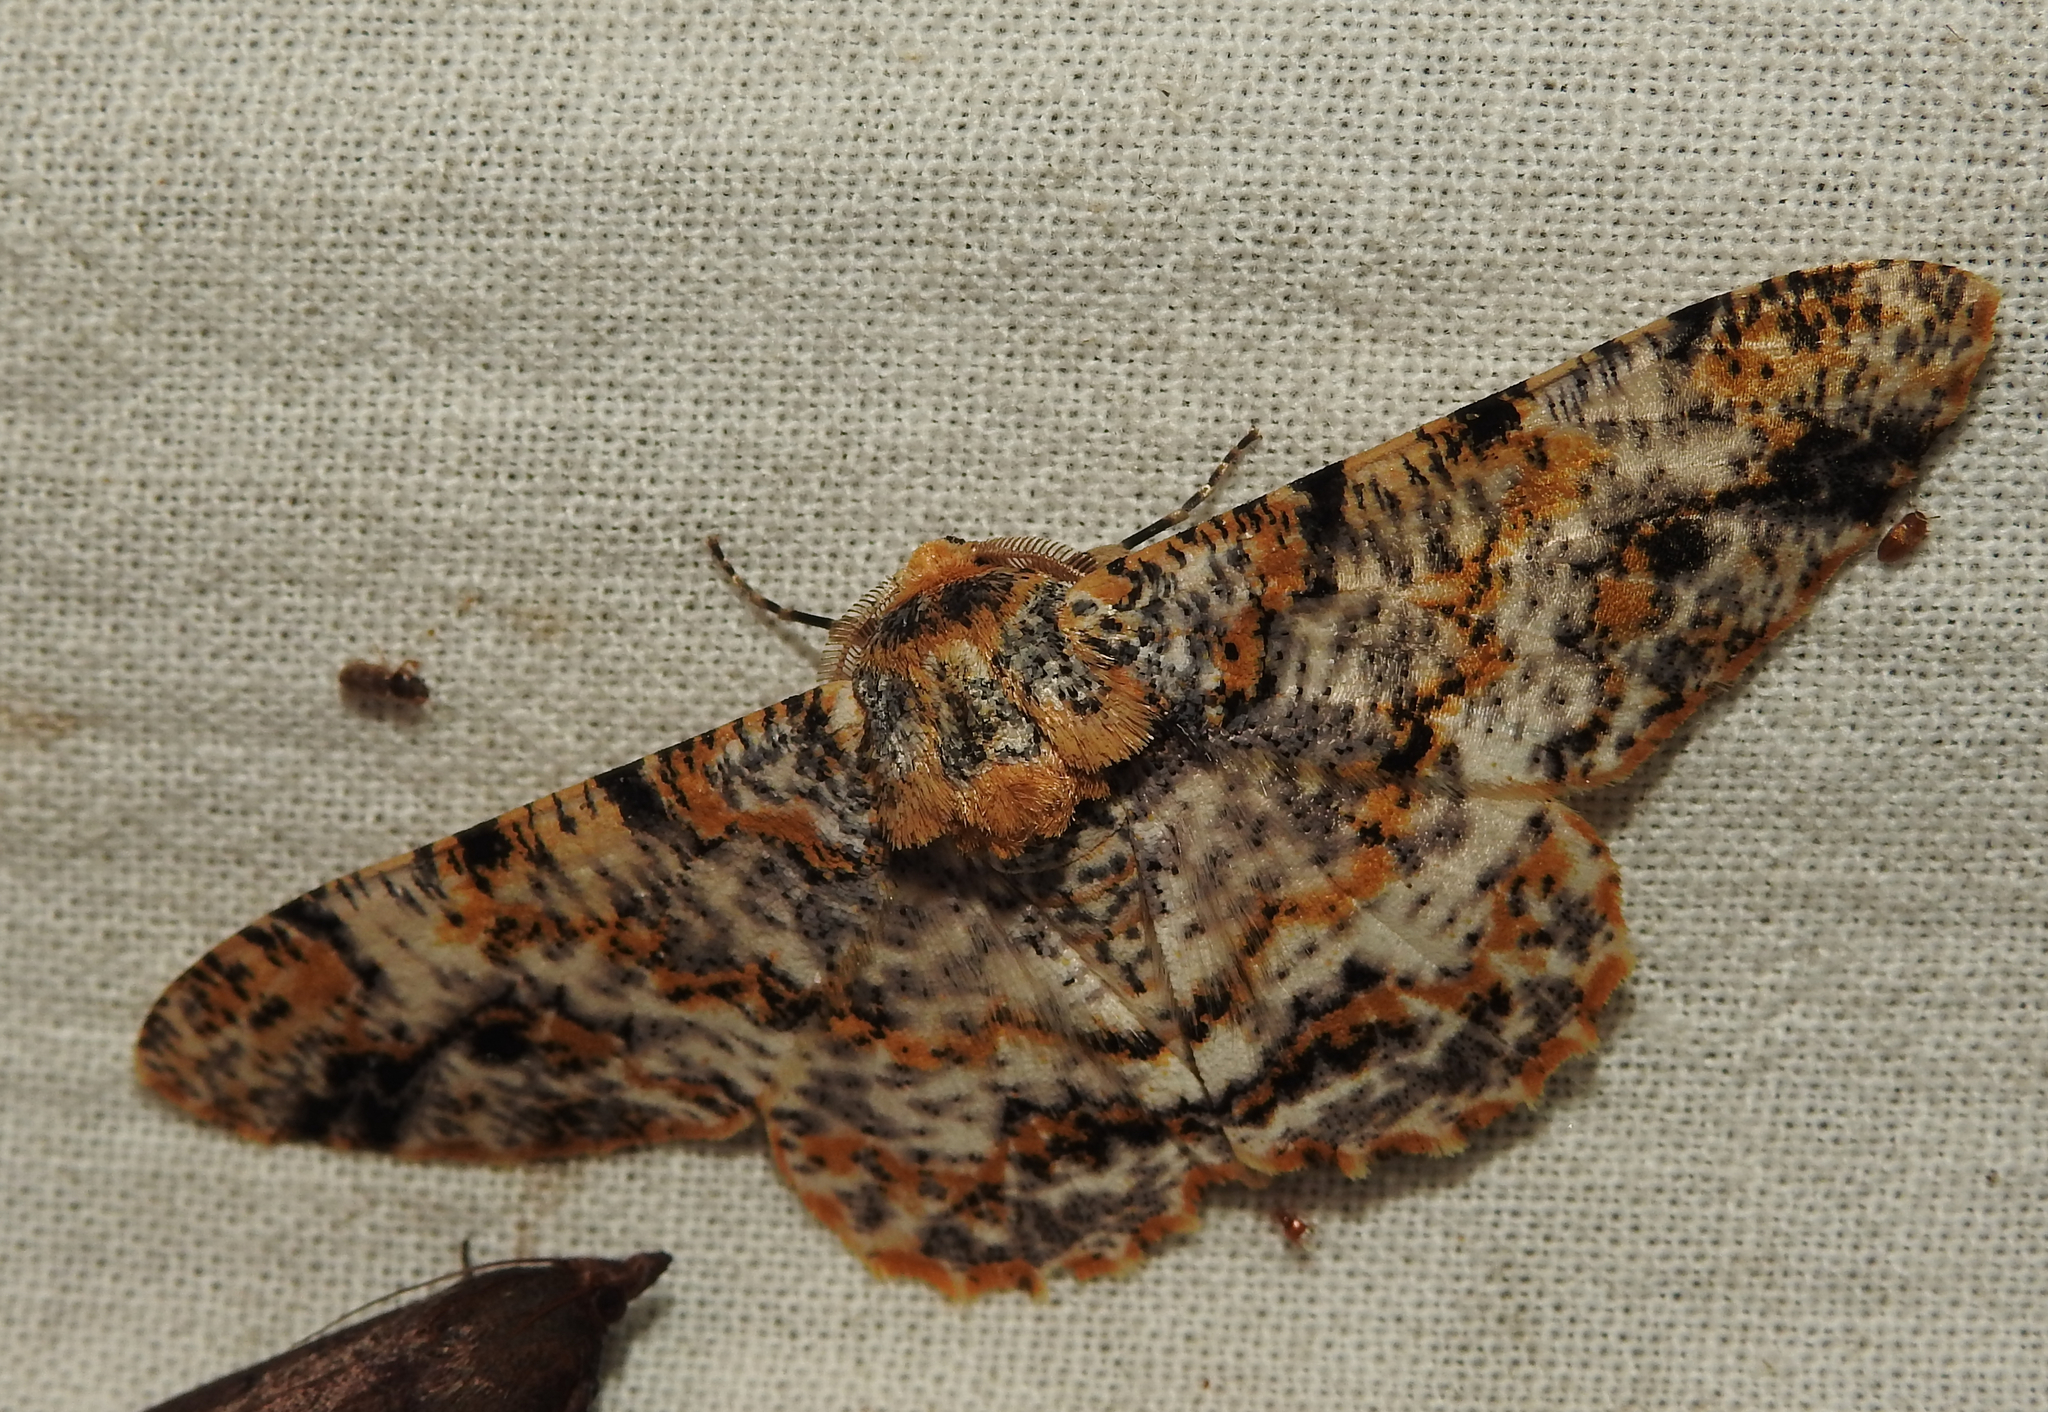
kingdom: Animalia
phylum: Arthropoda
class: Insecta
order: Lepidoptera
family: Geometridae
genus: Biston
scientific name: Biston suppressaria
